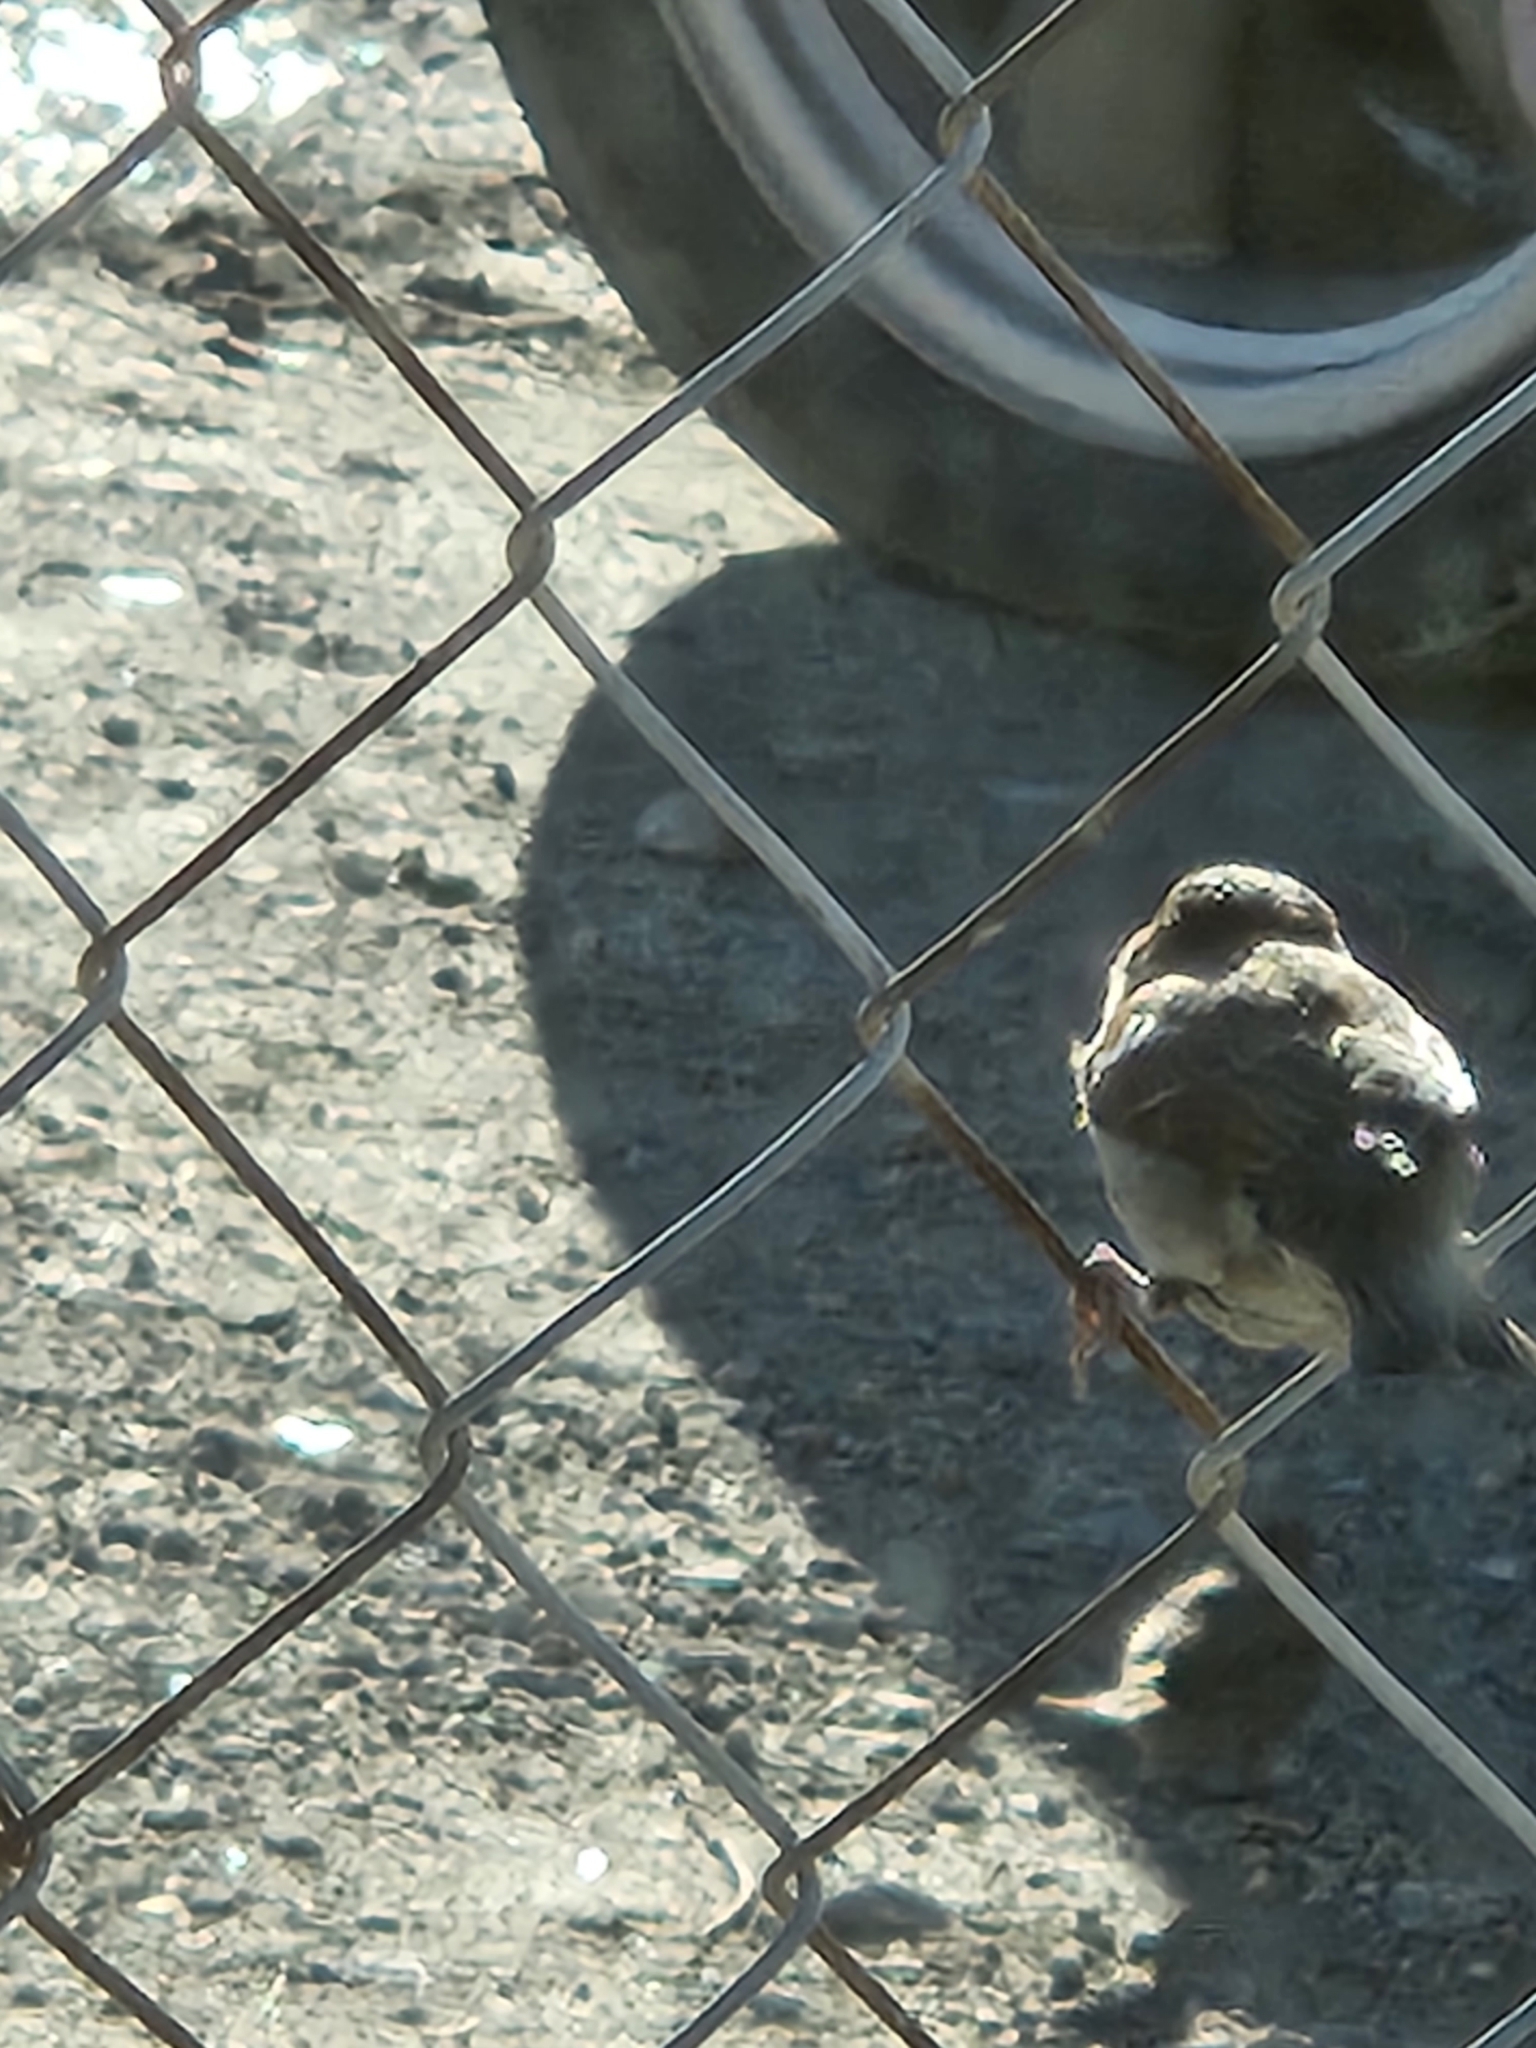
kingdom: Animalia
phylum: Chordata
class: Aves
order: Passeriformes
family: Passeridae
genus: Passer
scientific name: Passer domesticus
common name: House sparrow
